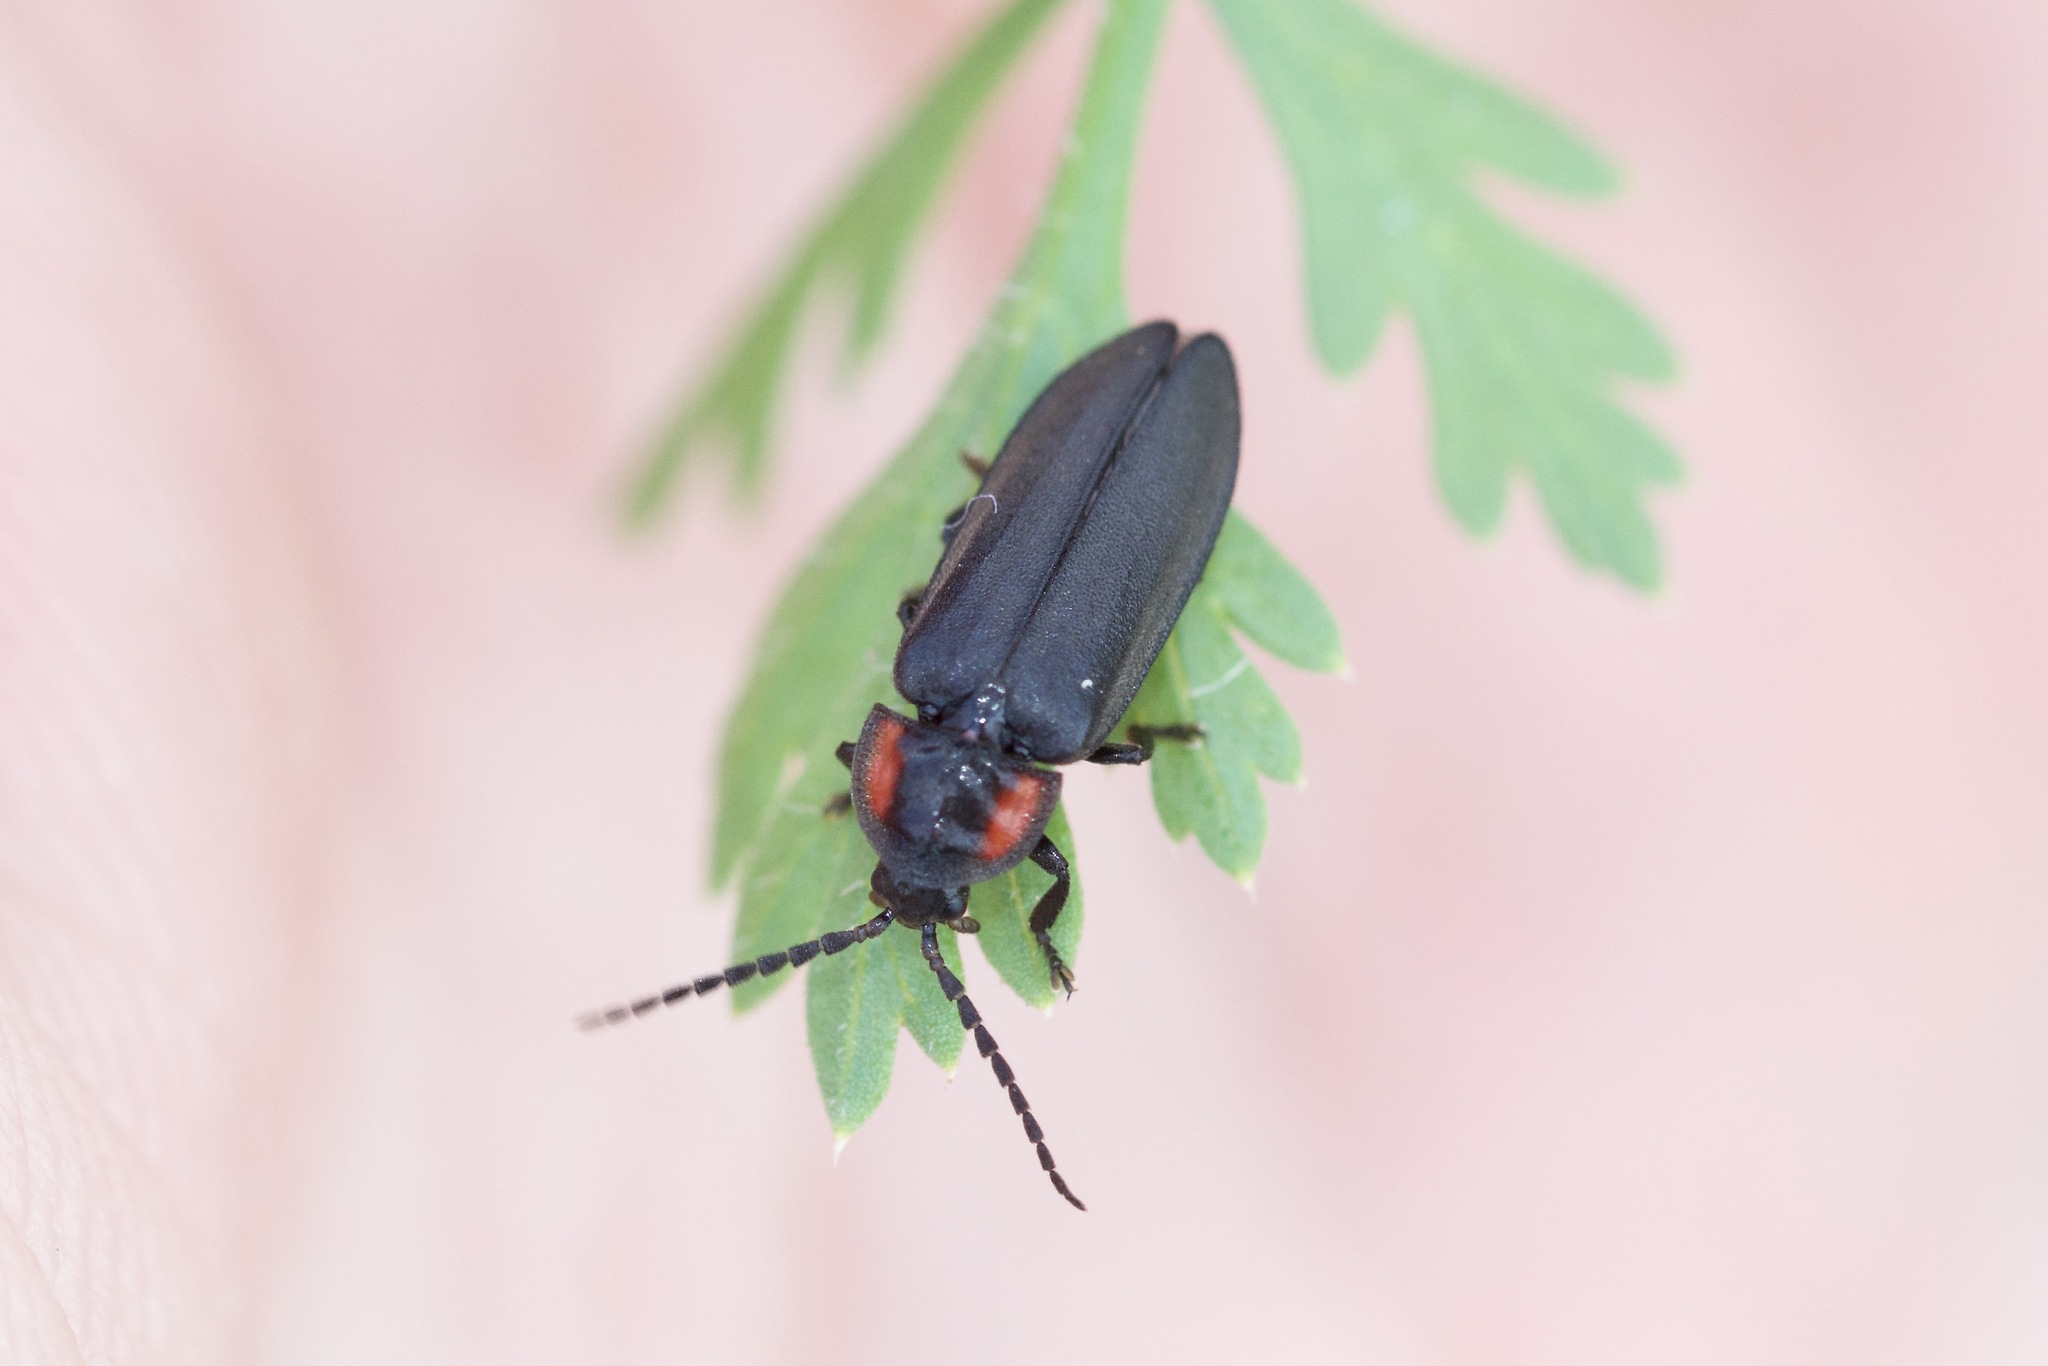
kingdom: Animalia
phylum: Arthropoda
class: Insecta
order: Coleoptera
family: Lampyridae
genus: Pyropyga
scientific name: Pyropyga nigricans
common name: Dark firefly
